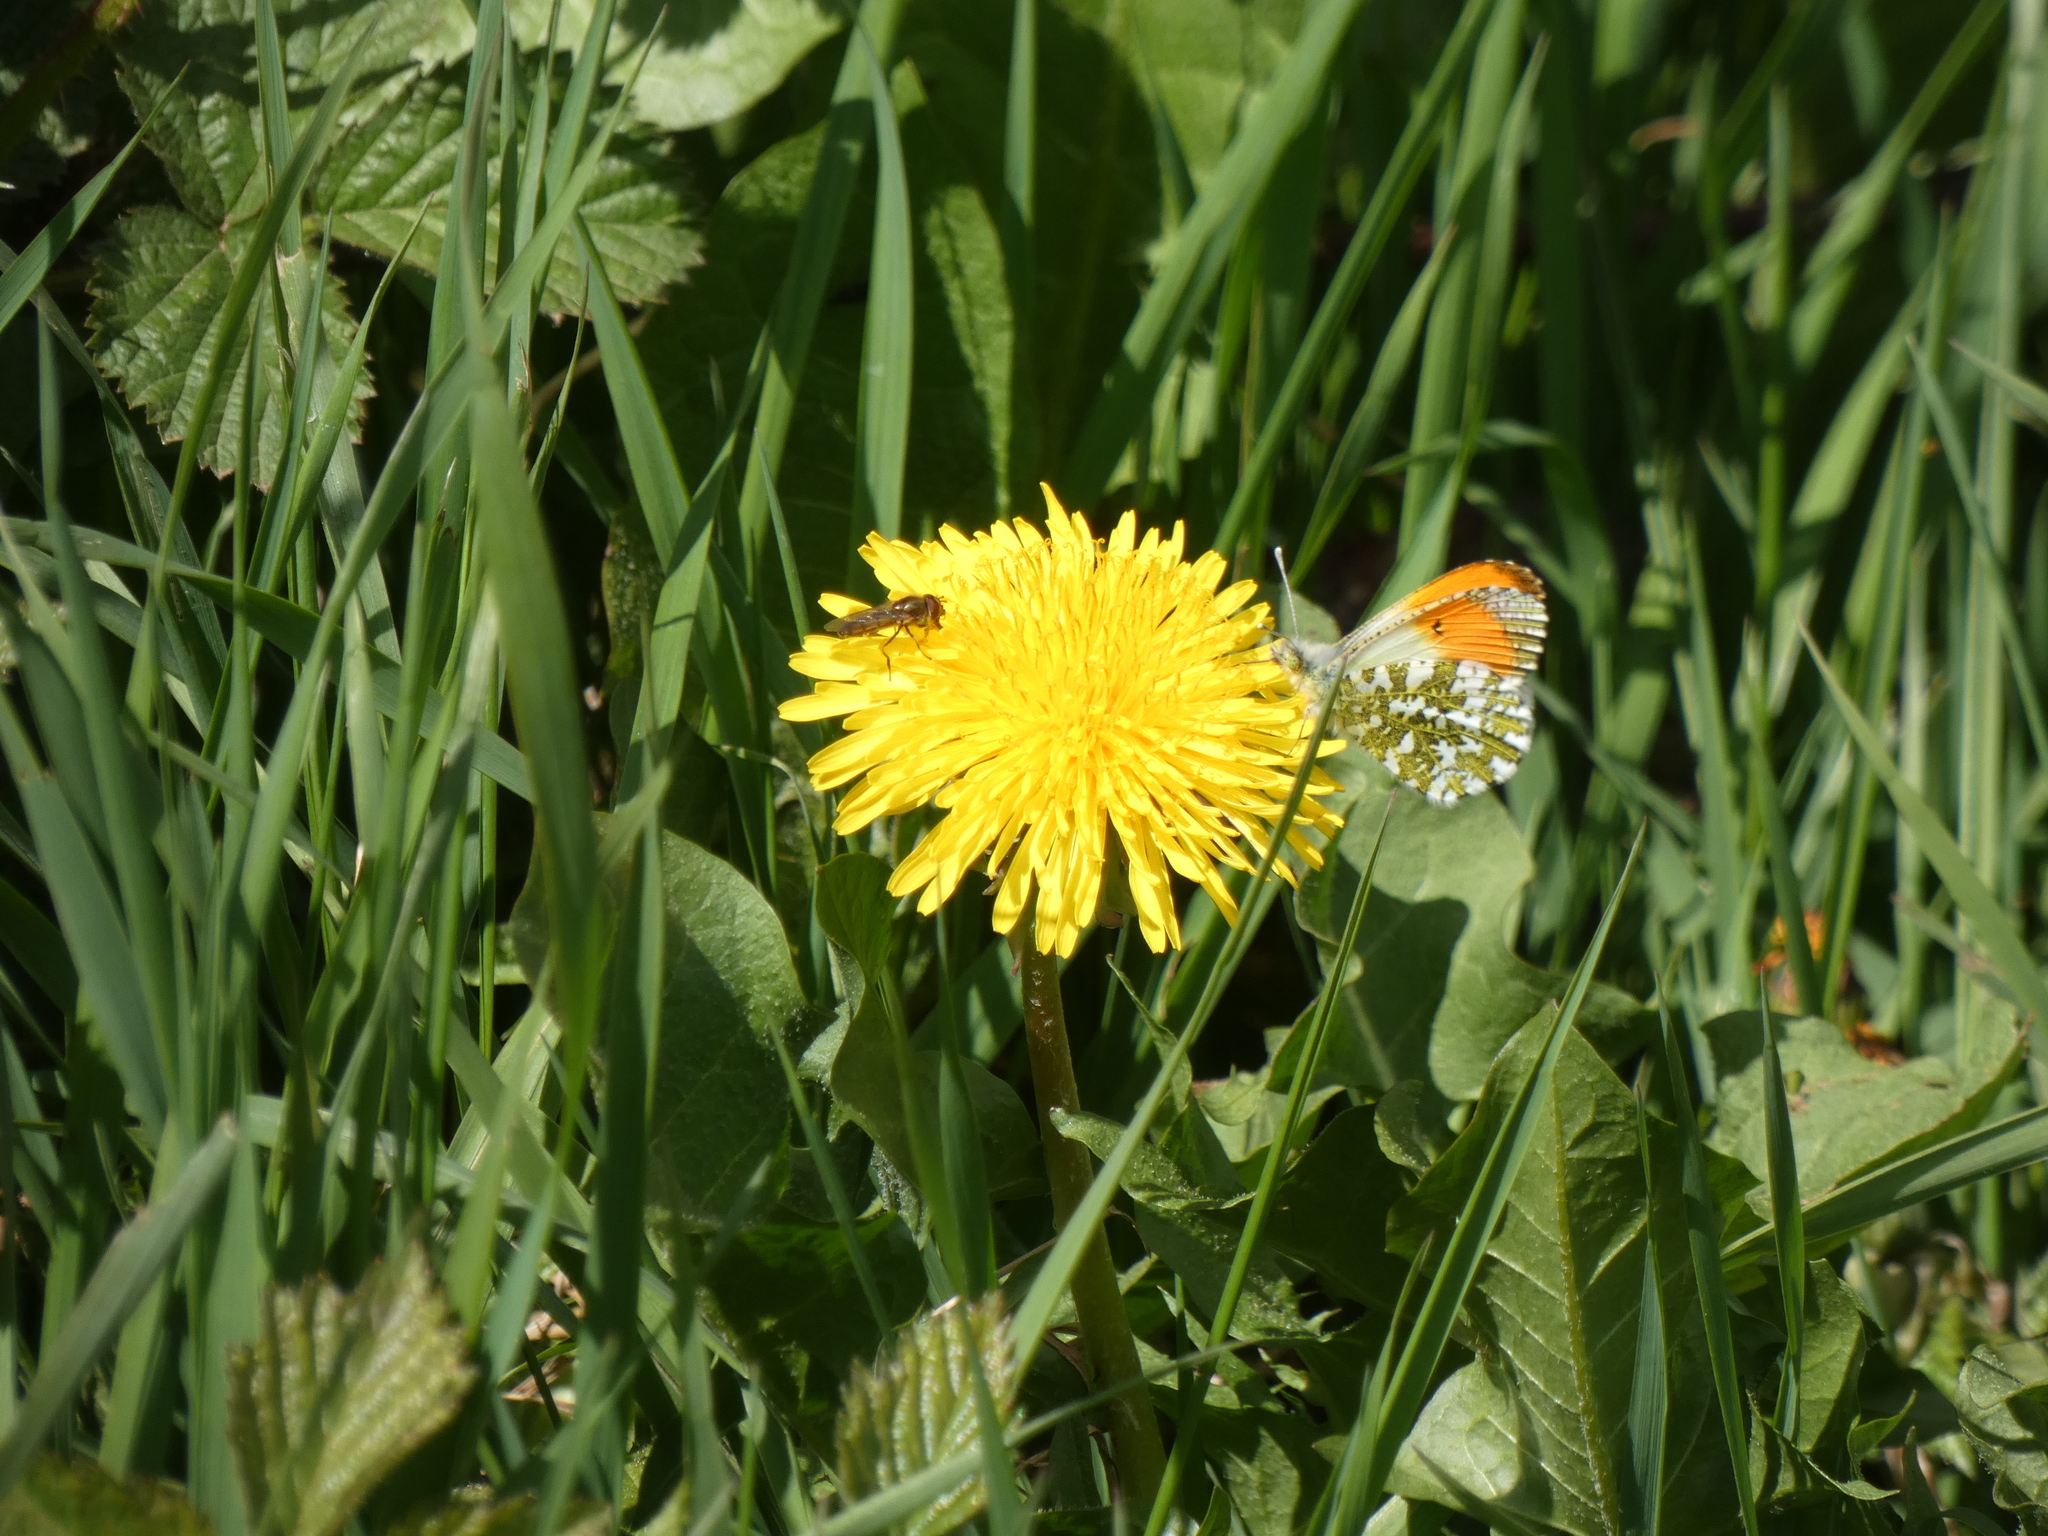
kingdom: Animalia
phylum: Arthropoda
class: Insecta
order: Lepidoptera
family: Pieridae
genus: Anthocharis
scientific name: Anthocharis cardamines
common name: Orange-tip
